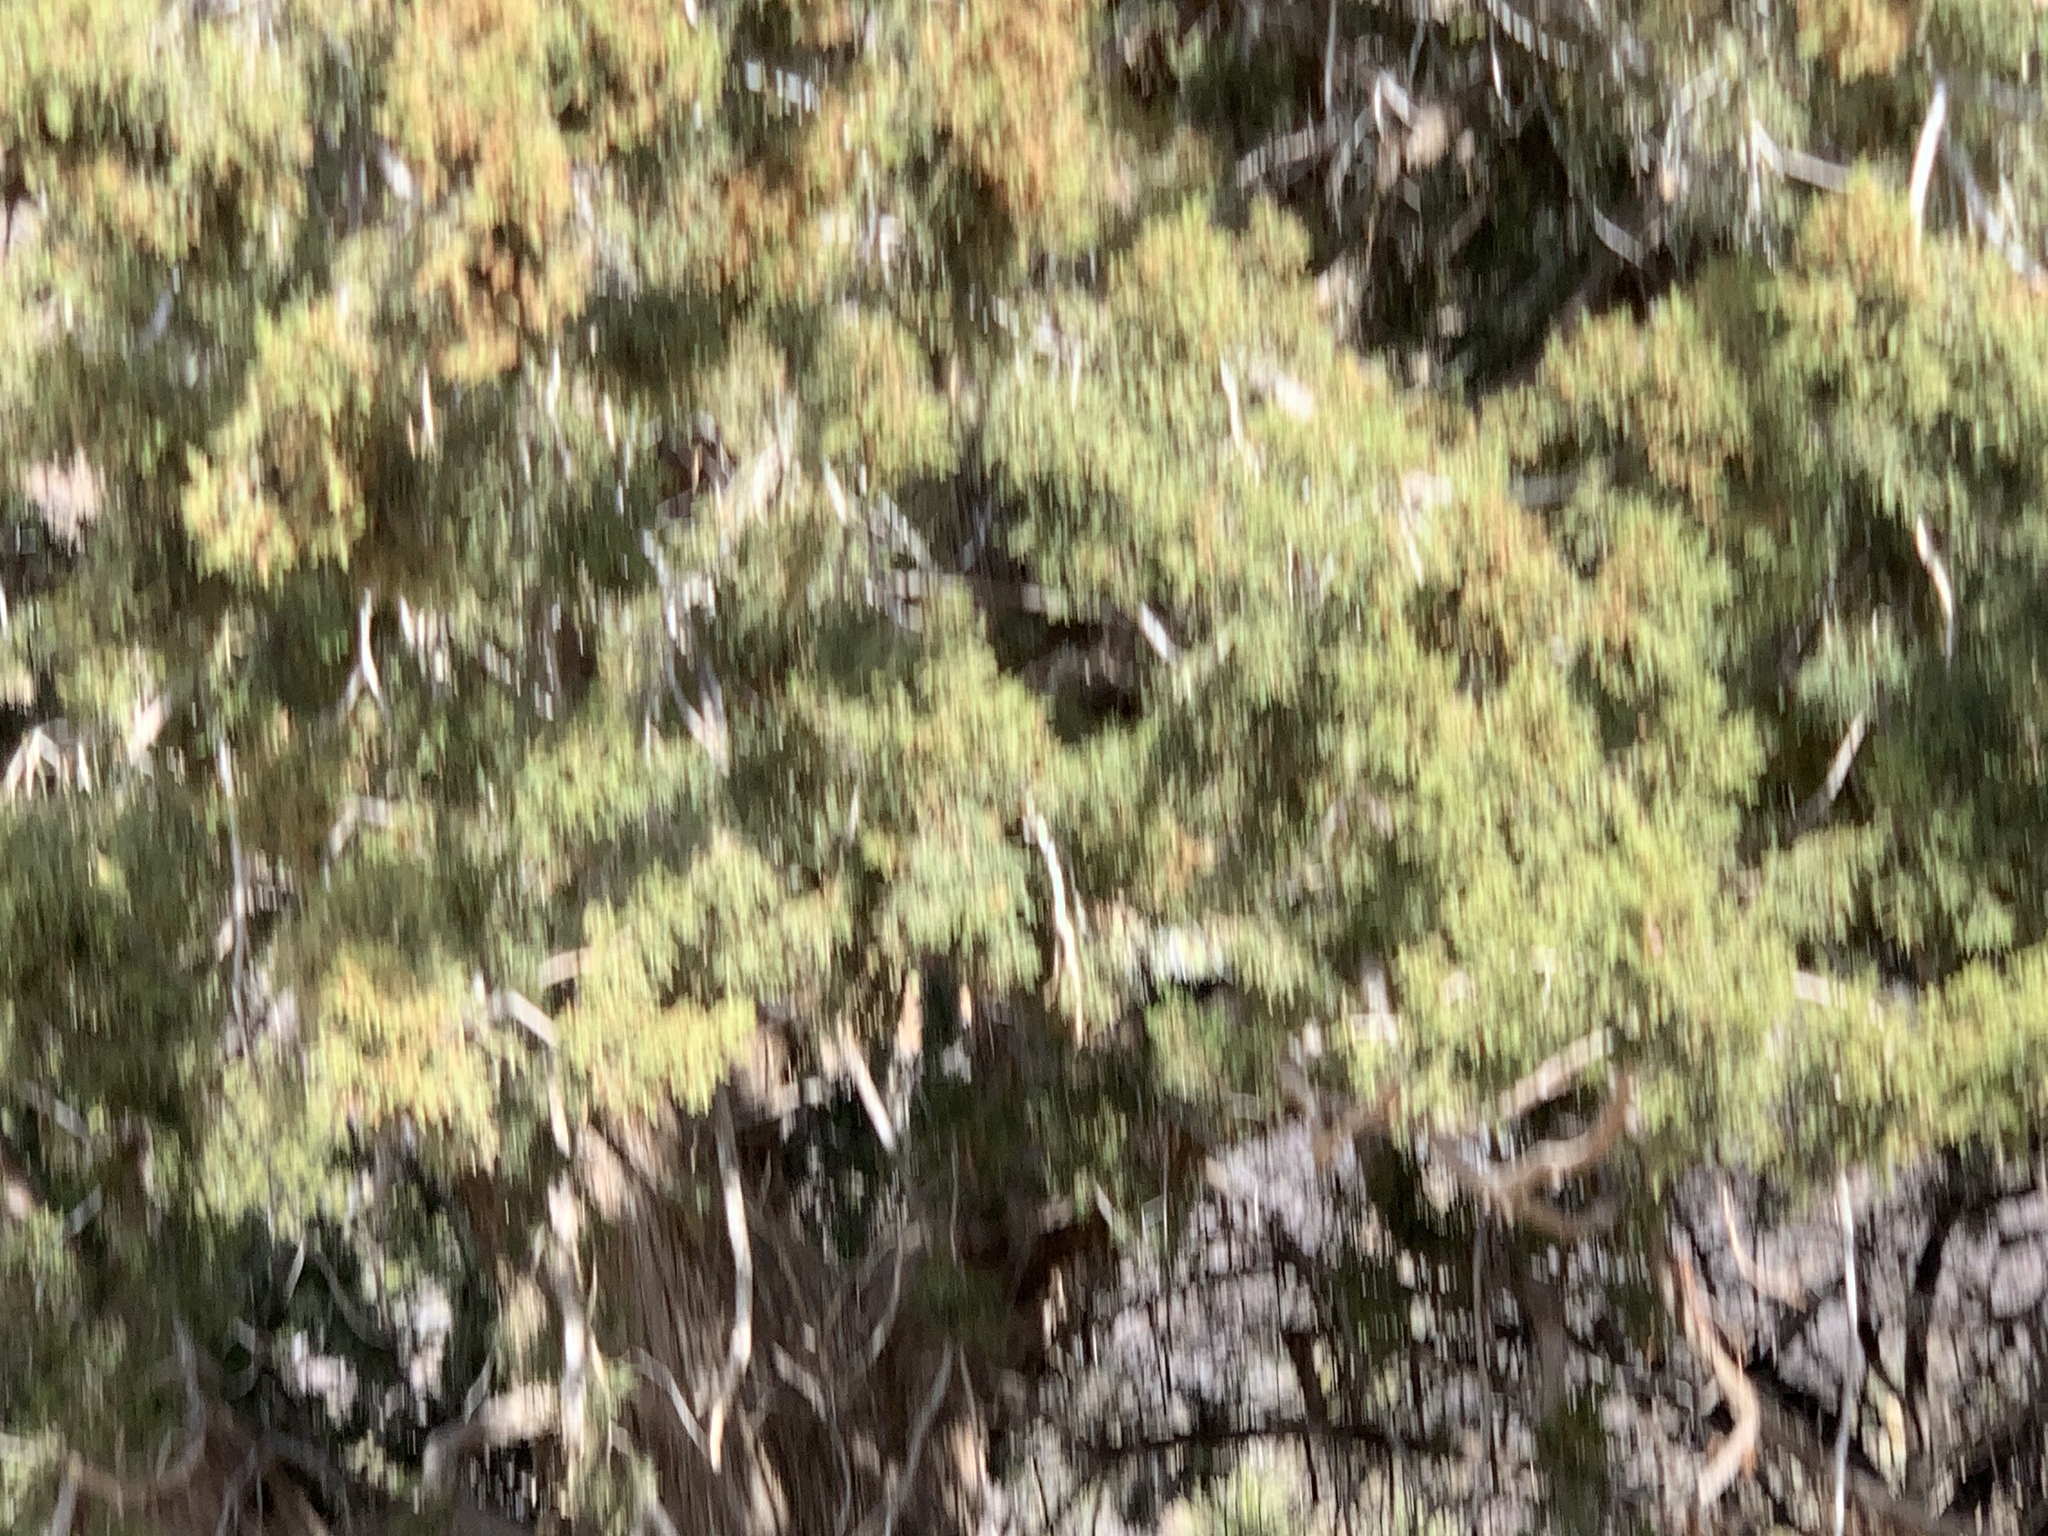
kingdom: Plantae
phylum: Tracheophyta
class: Pinopsida
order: Pinales
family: Cupressaceae
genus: Juniperus
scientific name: Juniperus arizonica
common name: Arizona juniper
